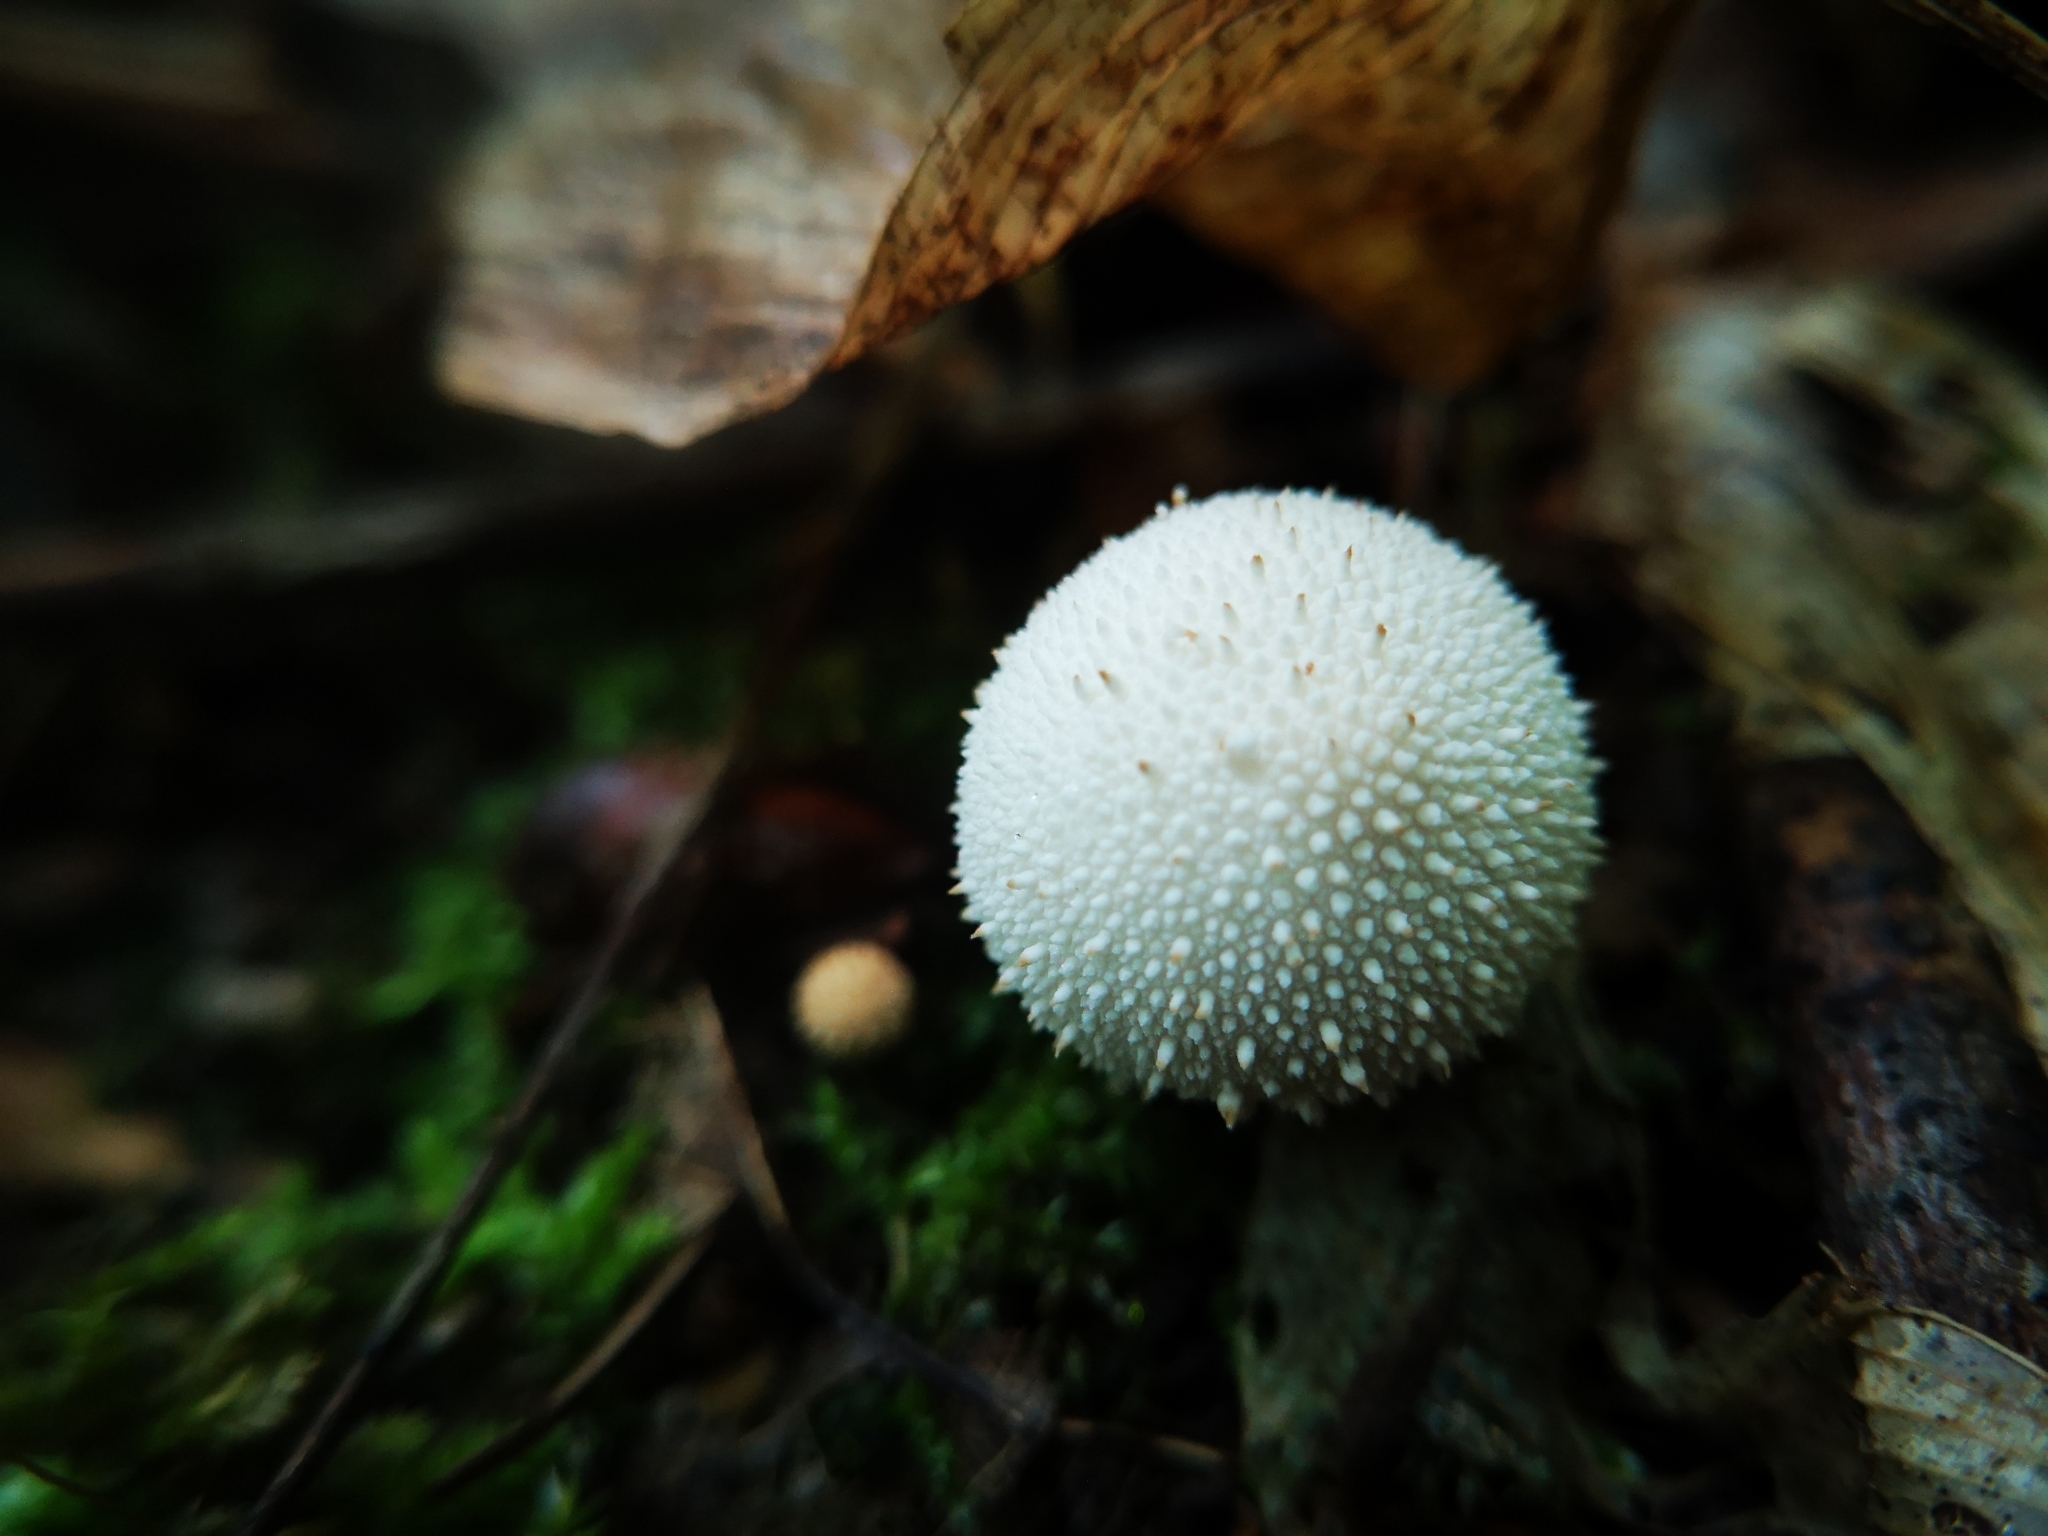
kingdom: Fungi
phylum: Basidiomycota
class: Agaricomycetes
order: Agaricales
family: Lycoperdaceae
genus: Lycoperdon
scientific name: Lycoperdon perlatum
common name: Common puffball
